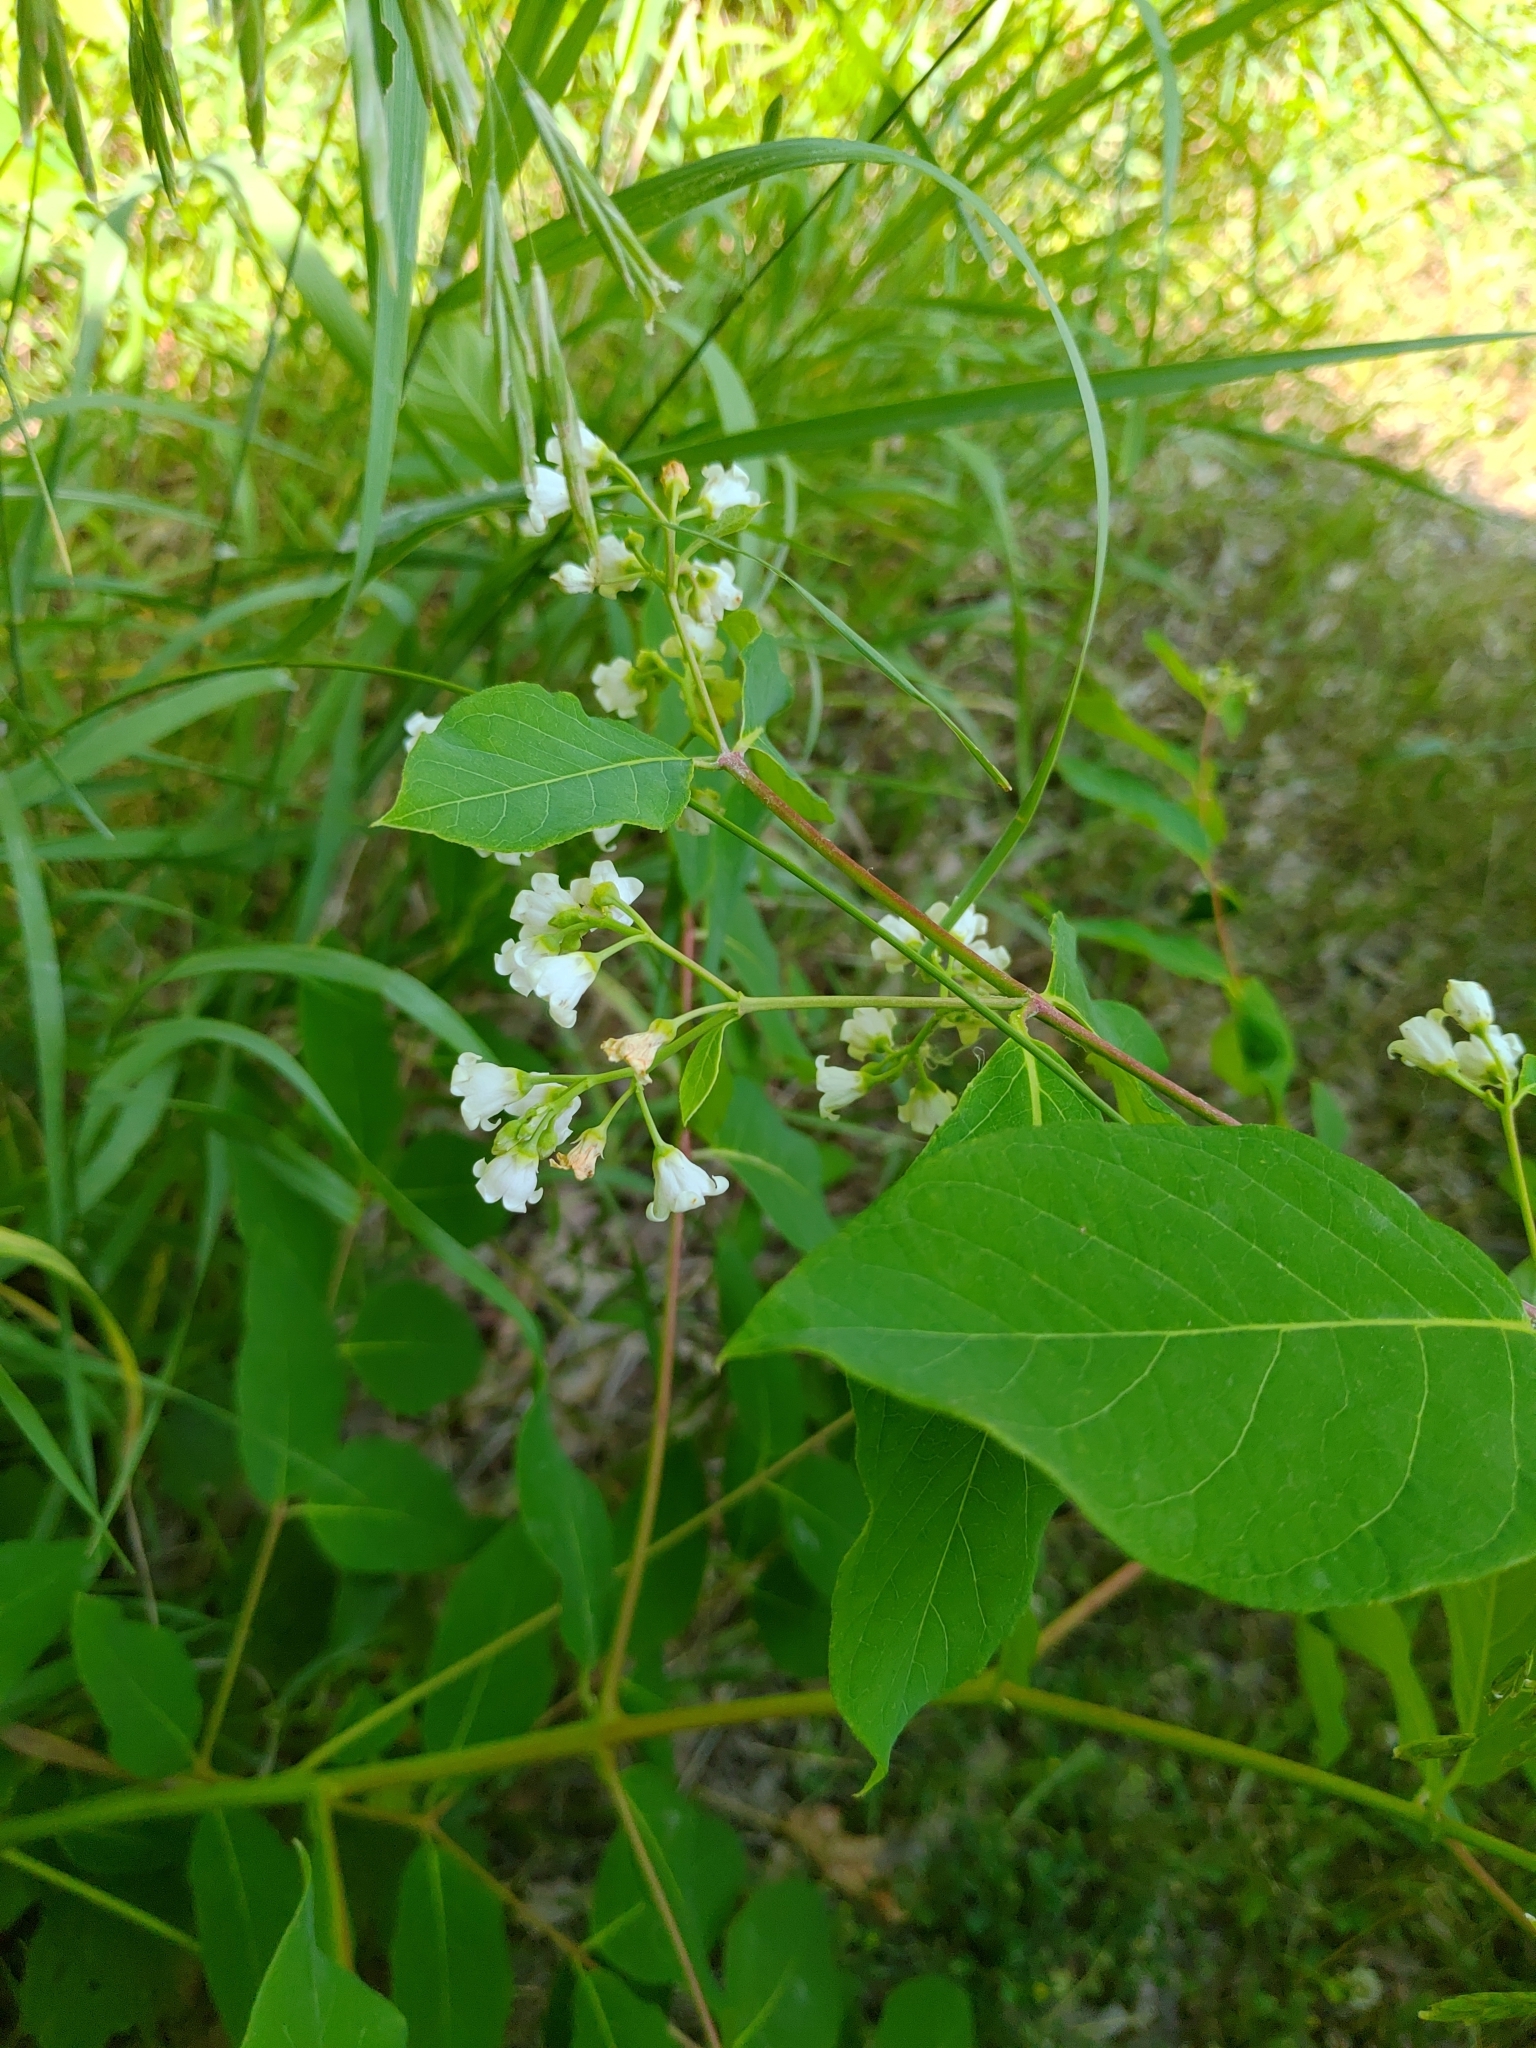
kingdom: Plantae
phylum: Tracheophyta
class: Magnoliopsida
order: Gentianales
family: Apocynaceae
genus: Apocynum
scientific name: Apocynum androsaemifolium
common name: Spreading dogbane
